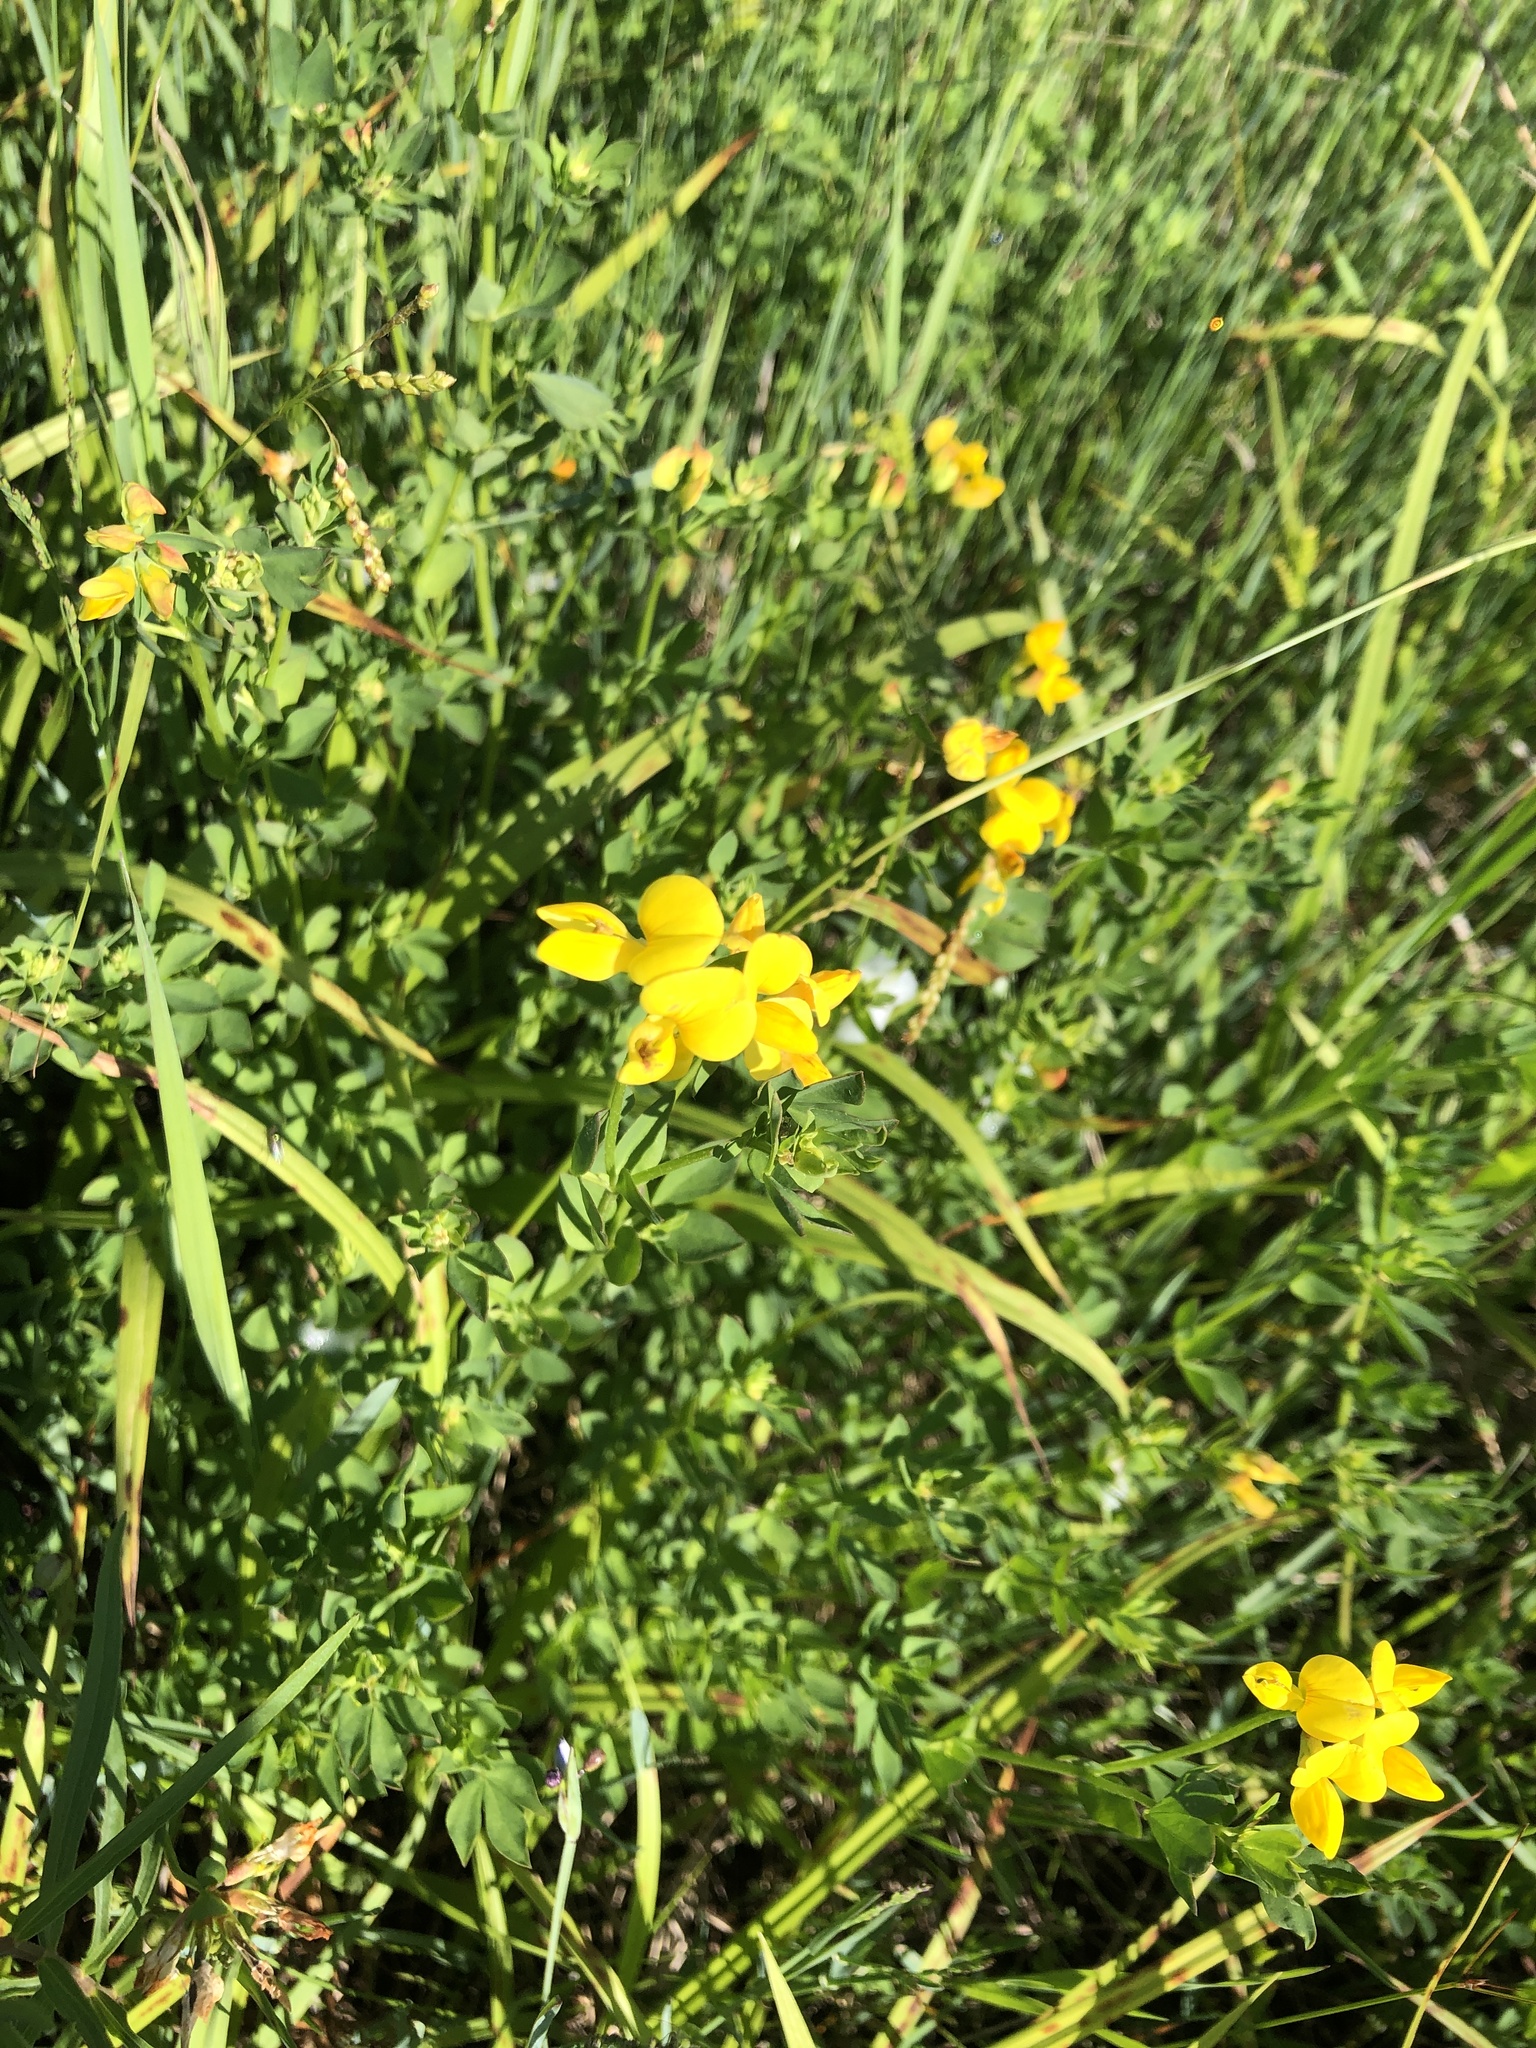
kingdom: Plantae
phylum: Tracheophyta
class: Magnoliopsida
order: Fabales
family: Fabaceae
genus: Lotus
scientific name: Lotus corniculatus
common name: Common bird's-foot-trefoil
